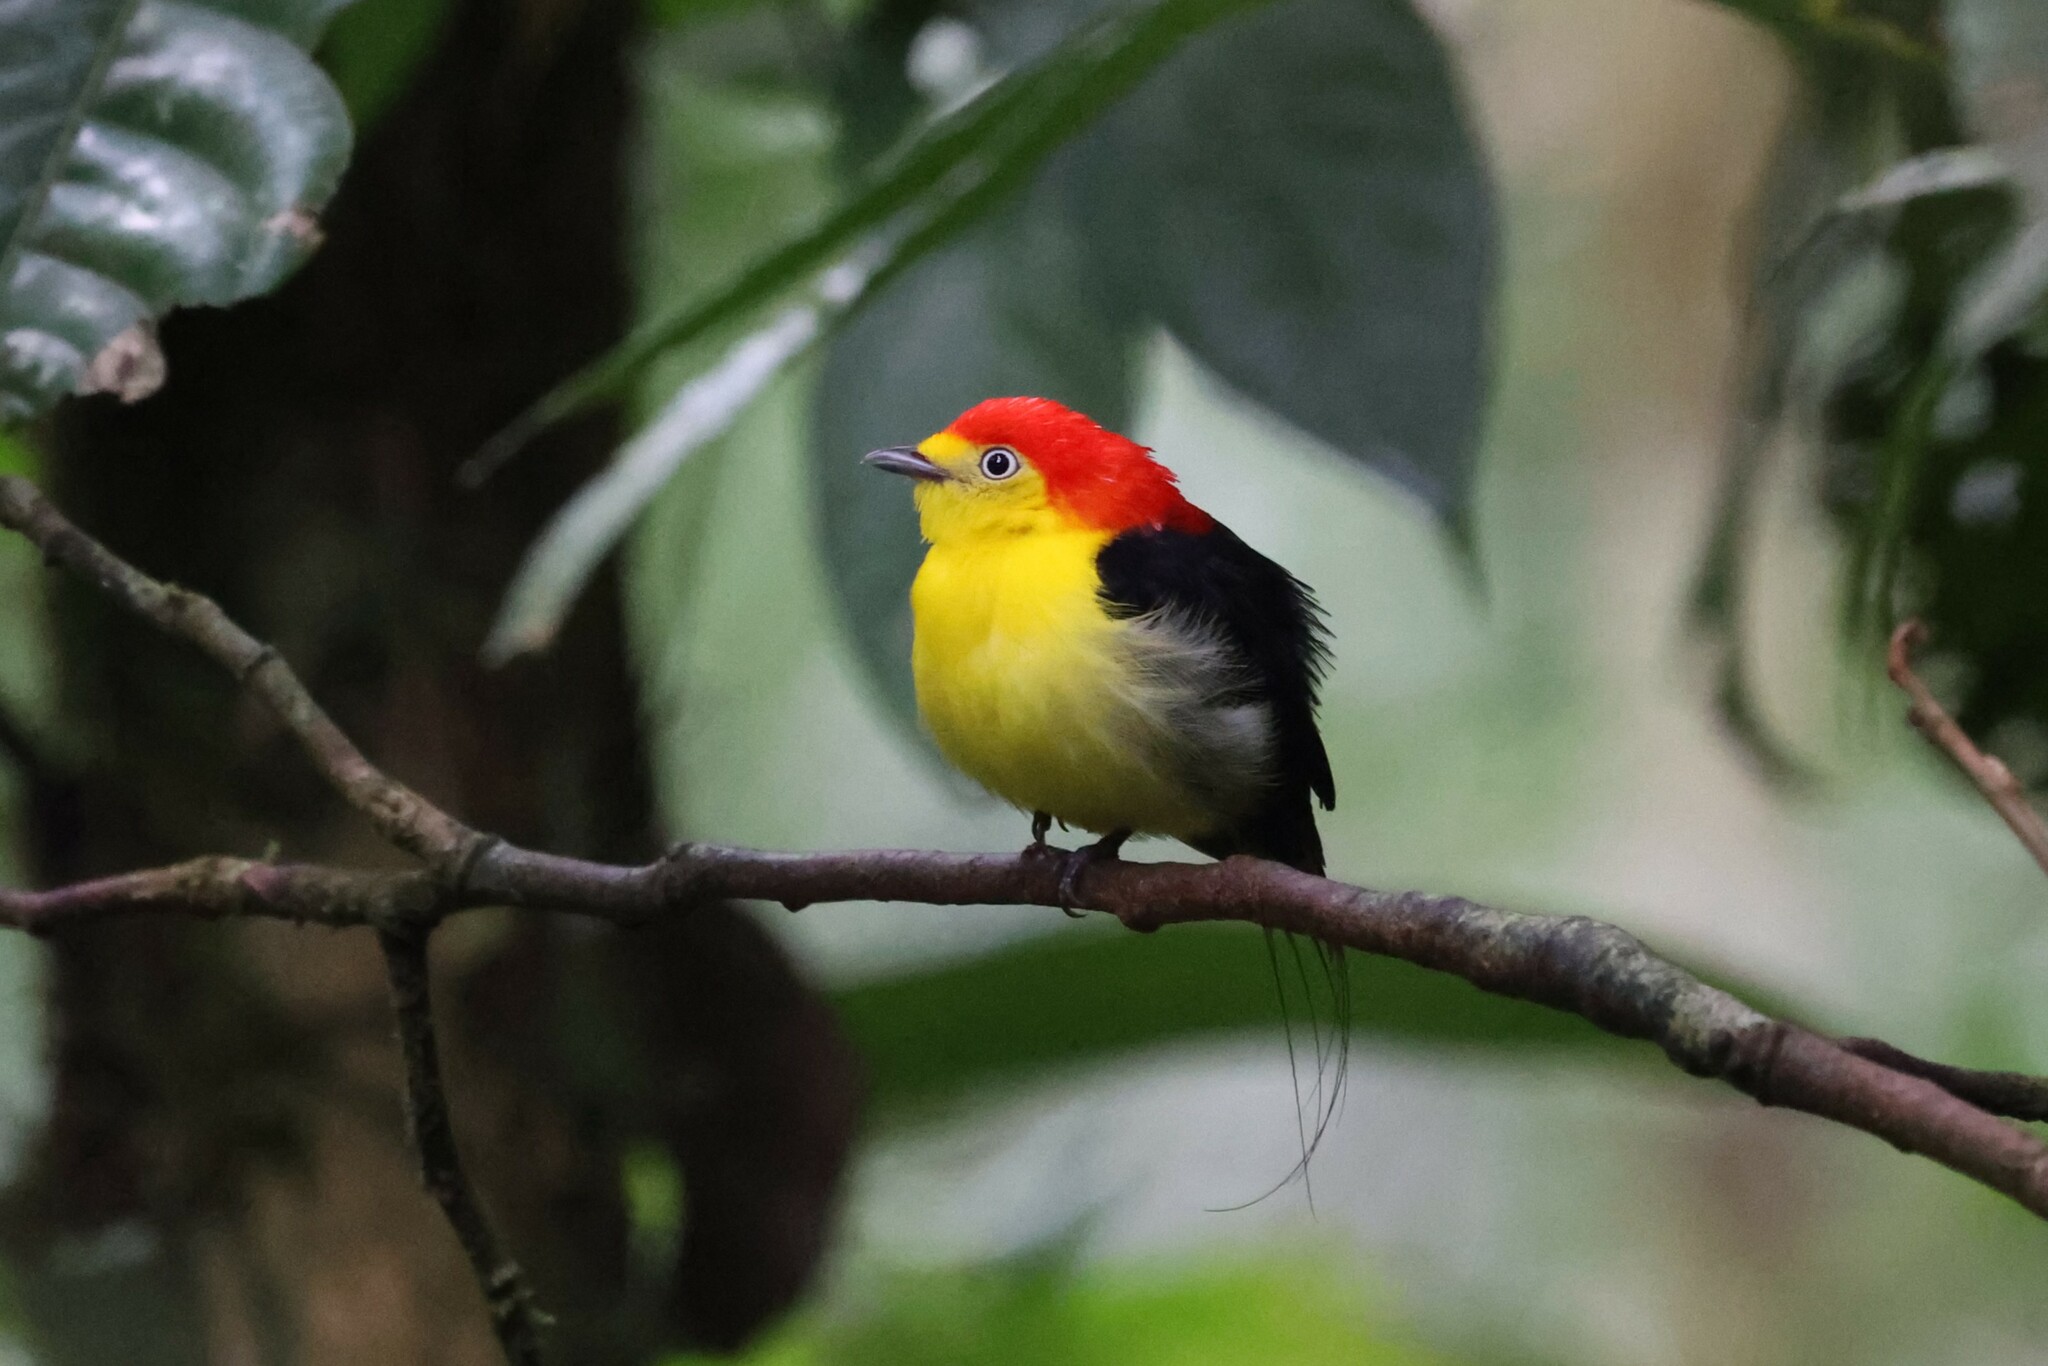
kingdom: Animalia
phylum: Chordata
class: Aves
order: Passeriformes
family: Pipridae
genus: Pipra
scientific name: Pipra filicauda
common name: Wire-tailed manakin
